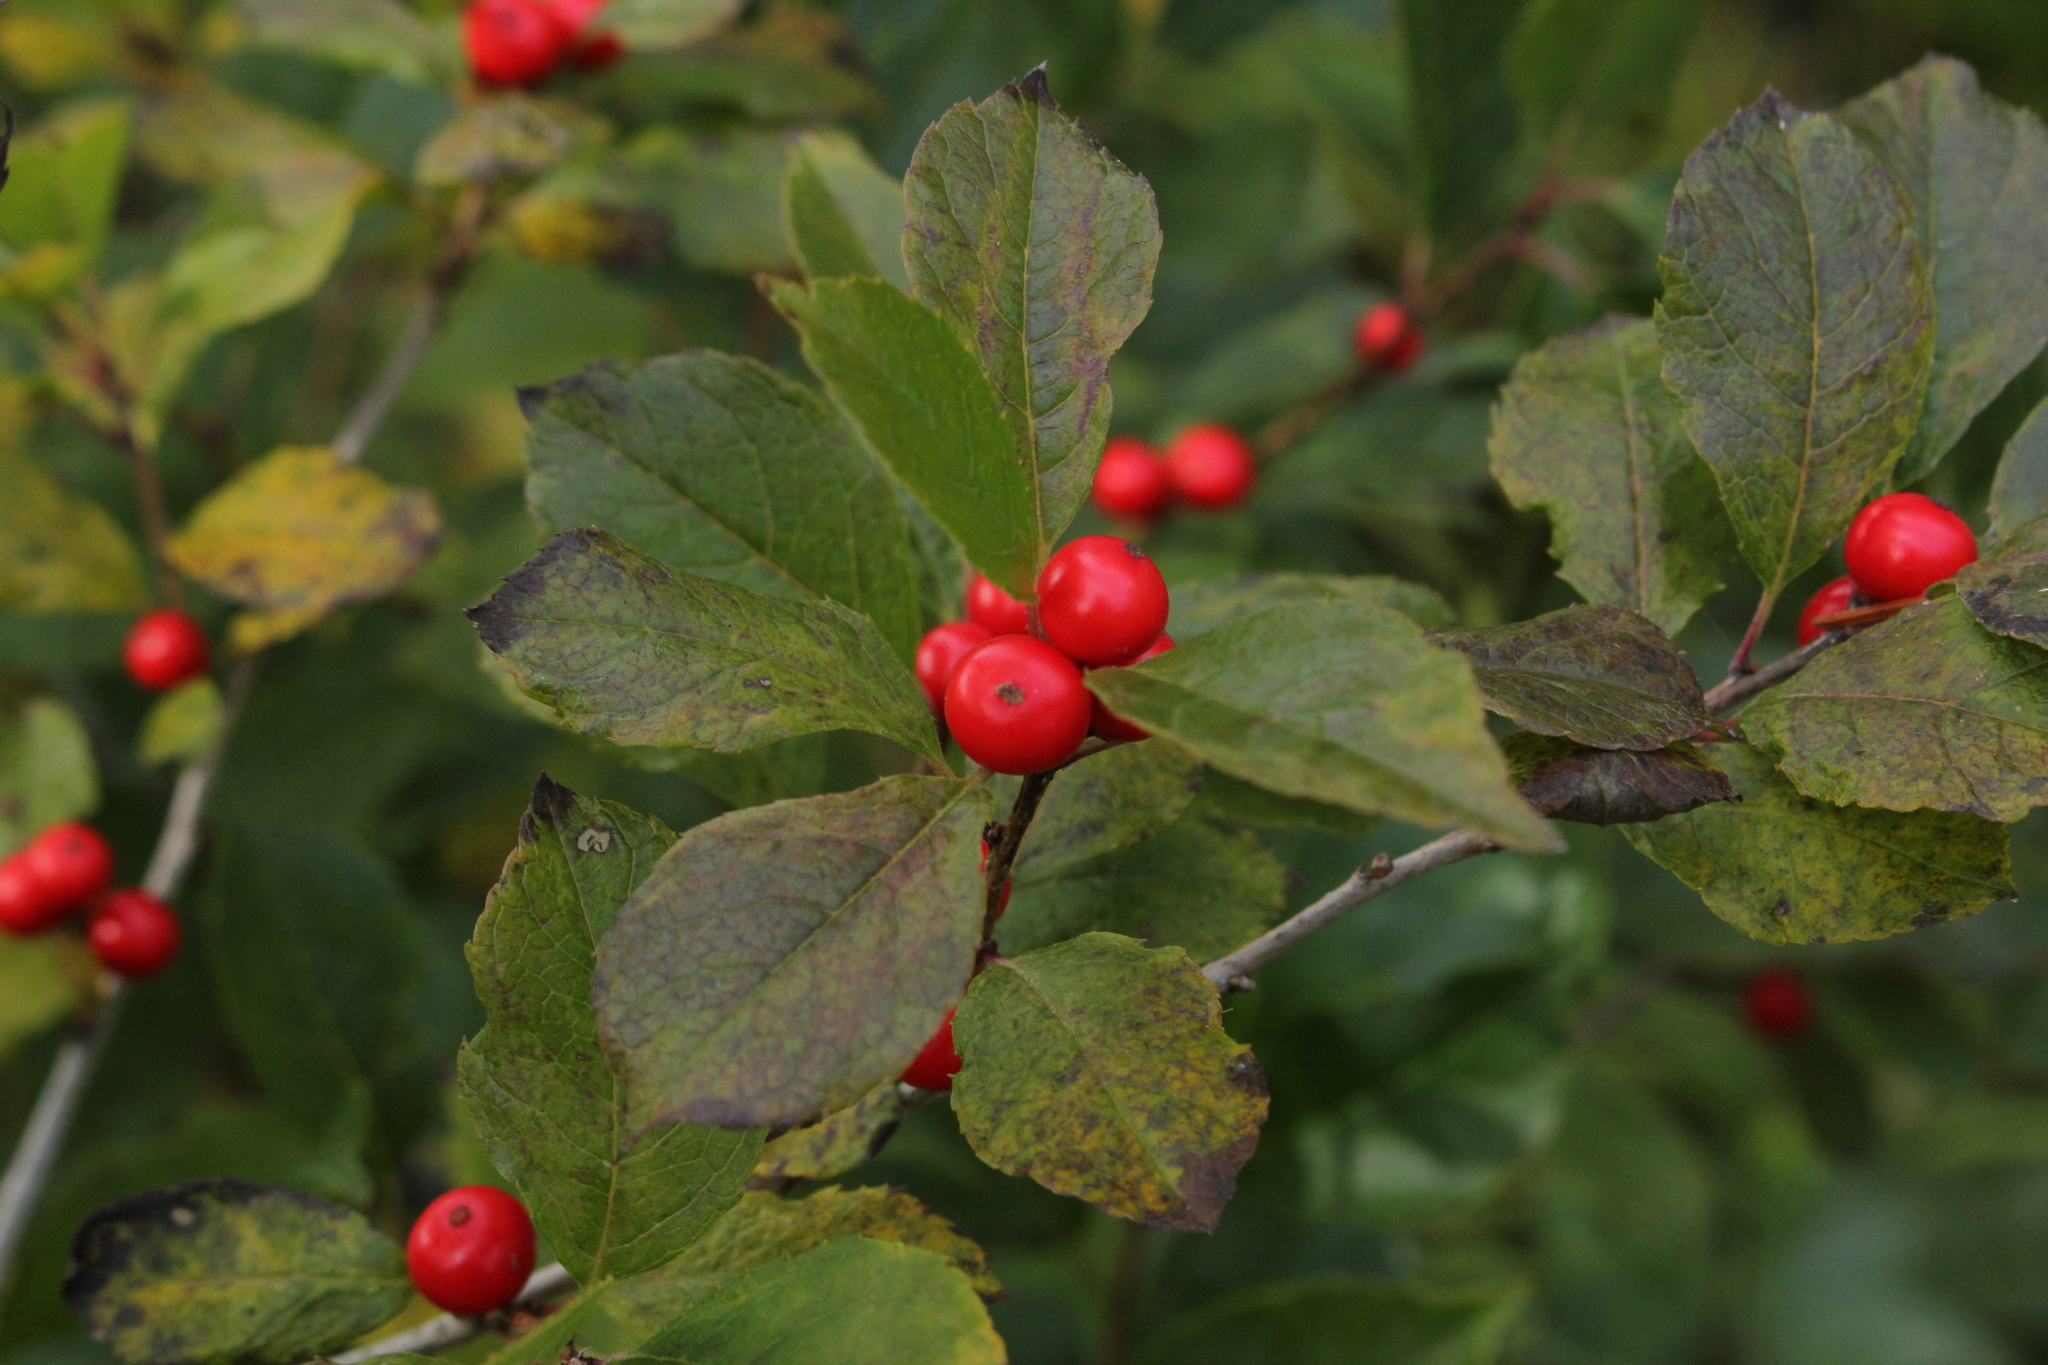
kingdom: Plantae
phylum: Tracheophyta
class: Magnoliopsida
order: Aquifoliales
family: Aquifoliaceae
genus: Ilex
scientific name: Ilex verticillata
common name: Virginia winterberry
